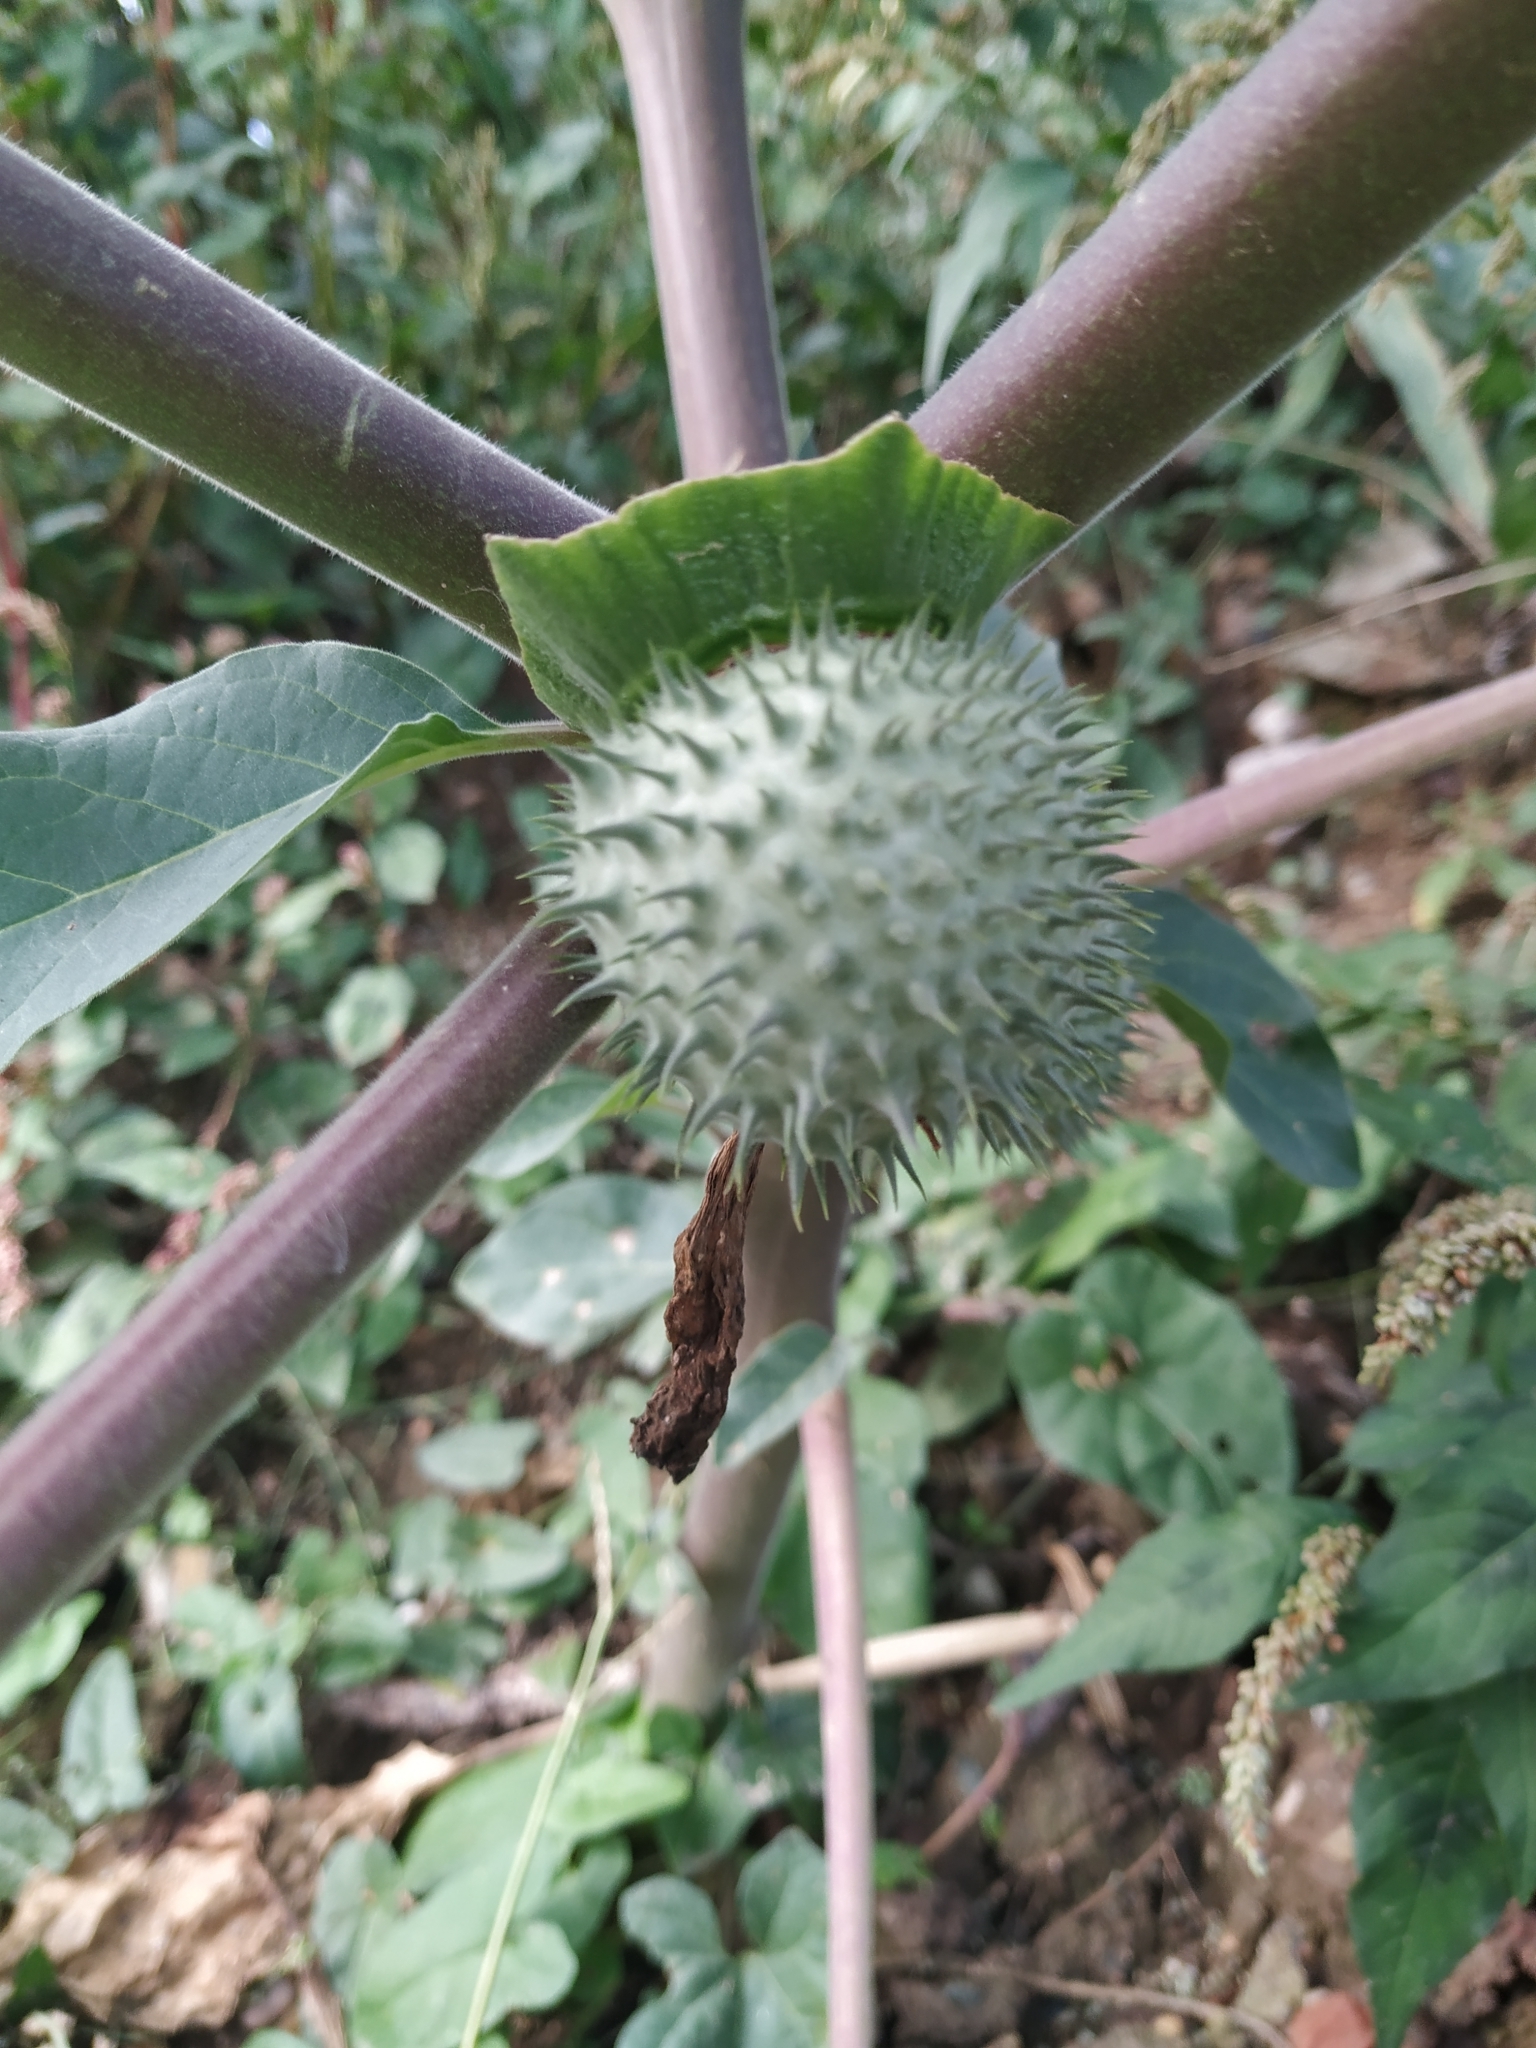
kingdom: Plantae
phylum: Tracheophyta
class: Magnoliopsida
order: Solanales
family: Solanaceae
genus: Datura
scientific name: Datura innoxia
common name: Downy thorn-apple
